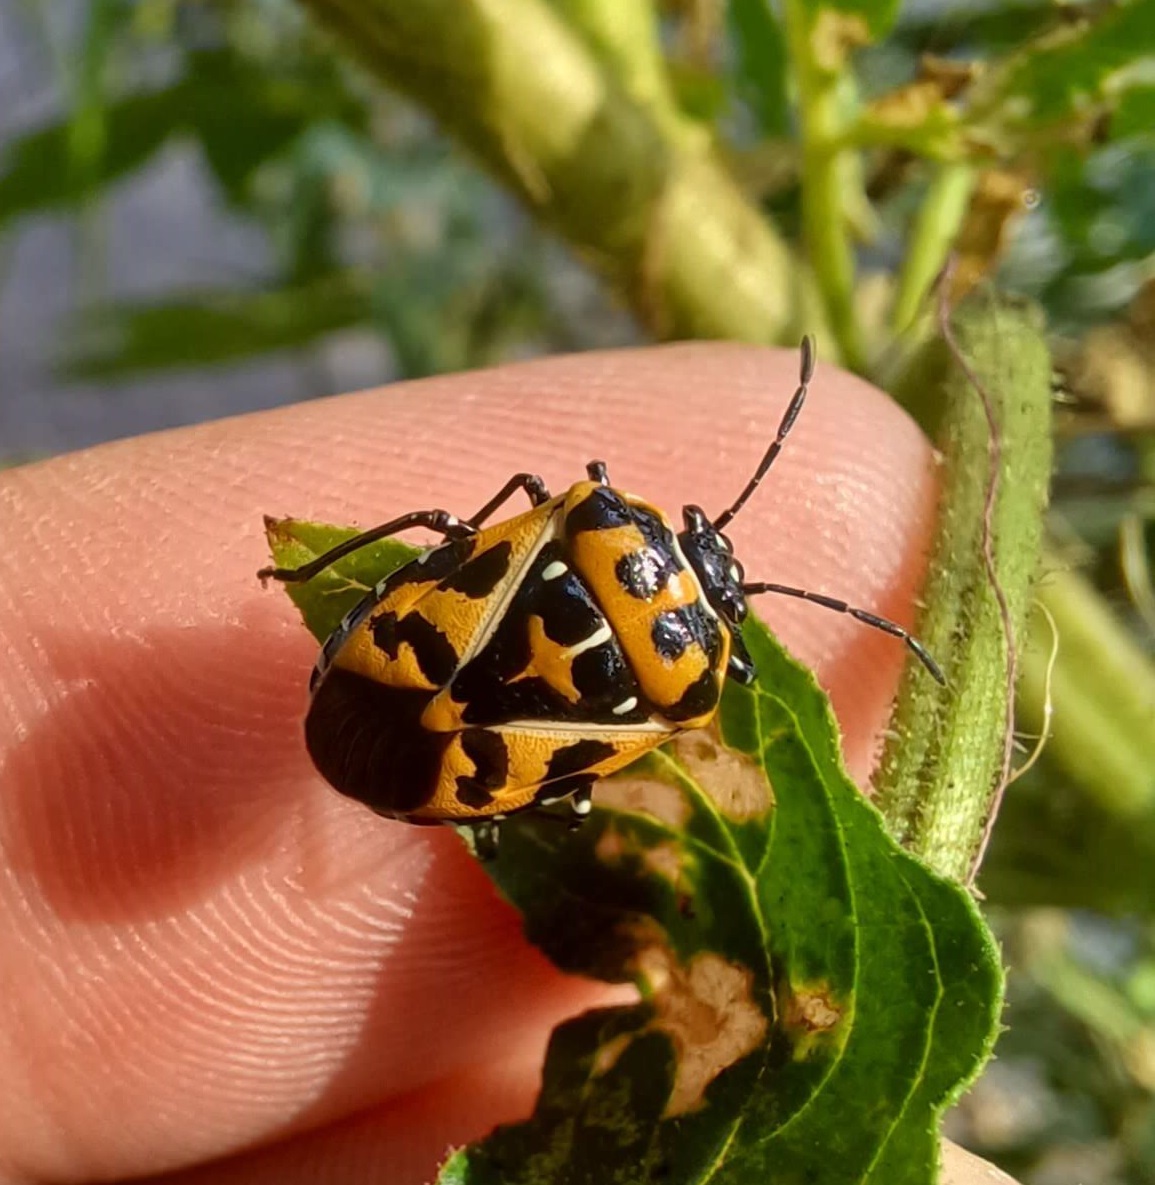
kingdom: Animalia
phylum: Arthropoda
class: Insecta
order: Hemiptera
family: Pentatomidae
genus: Murgantia
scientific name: Murgantia histrionica
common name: Harlequin bug
